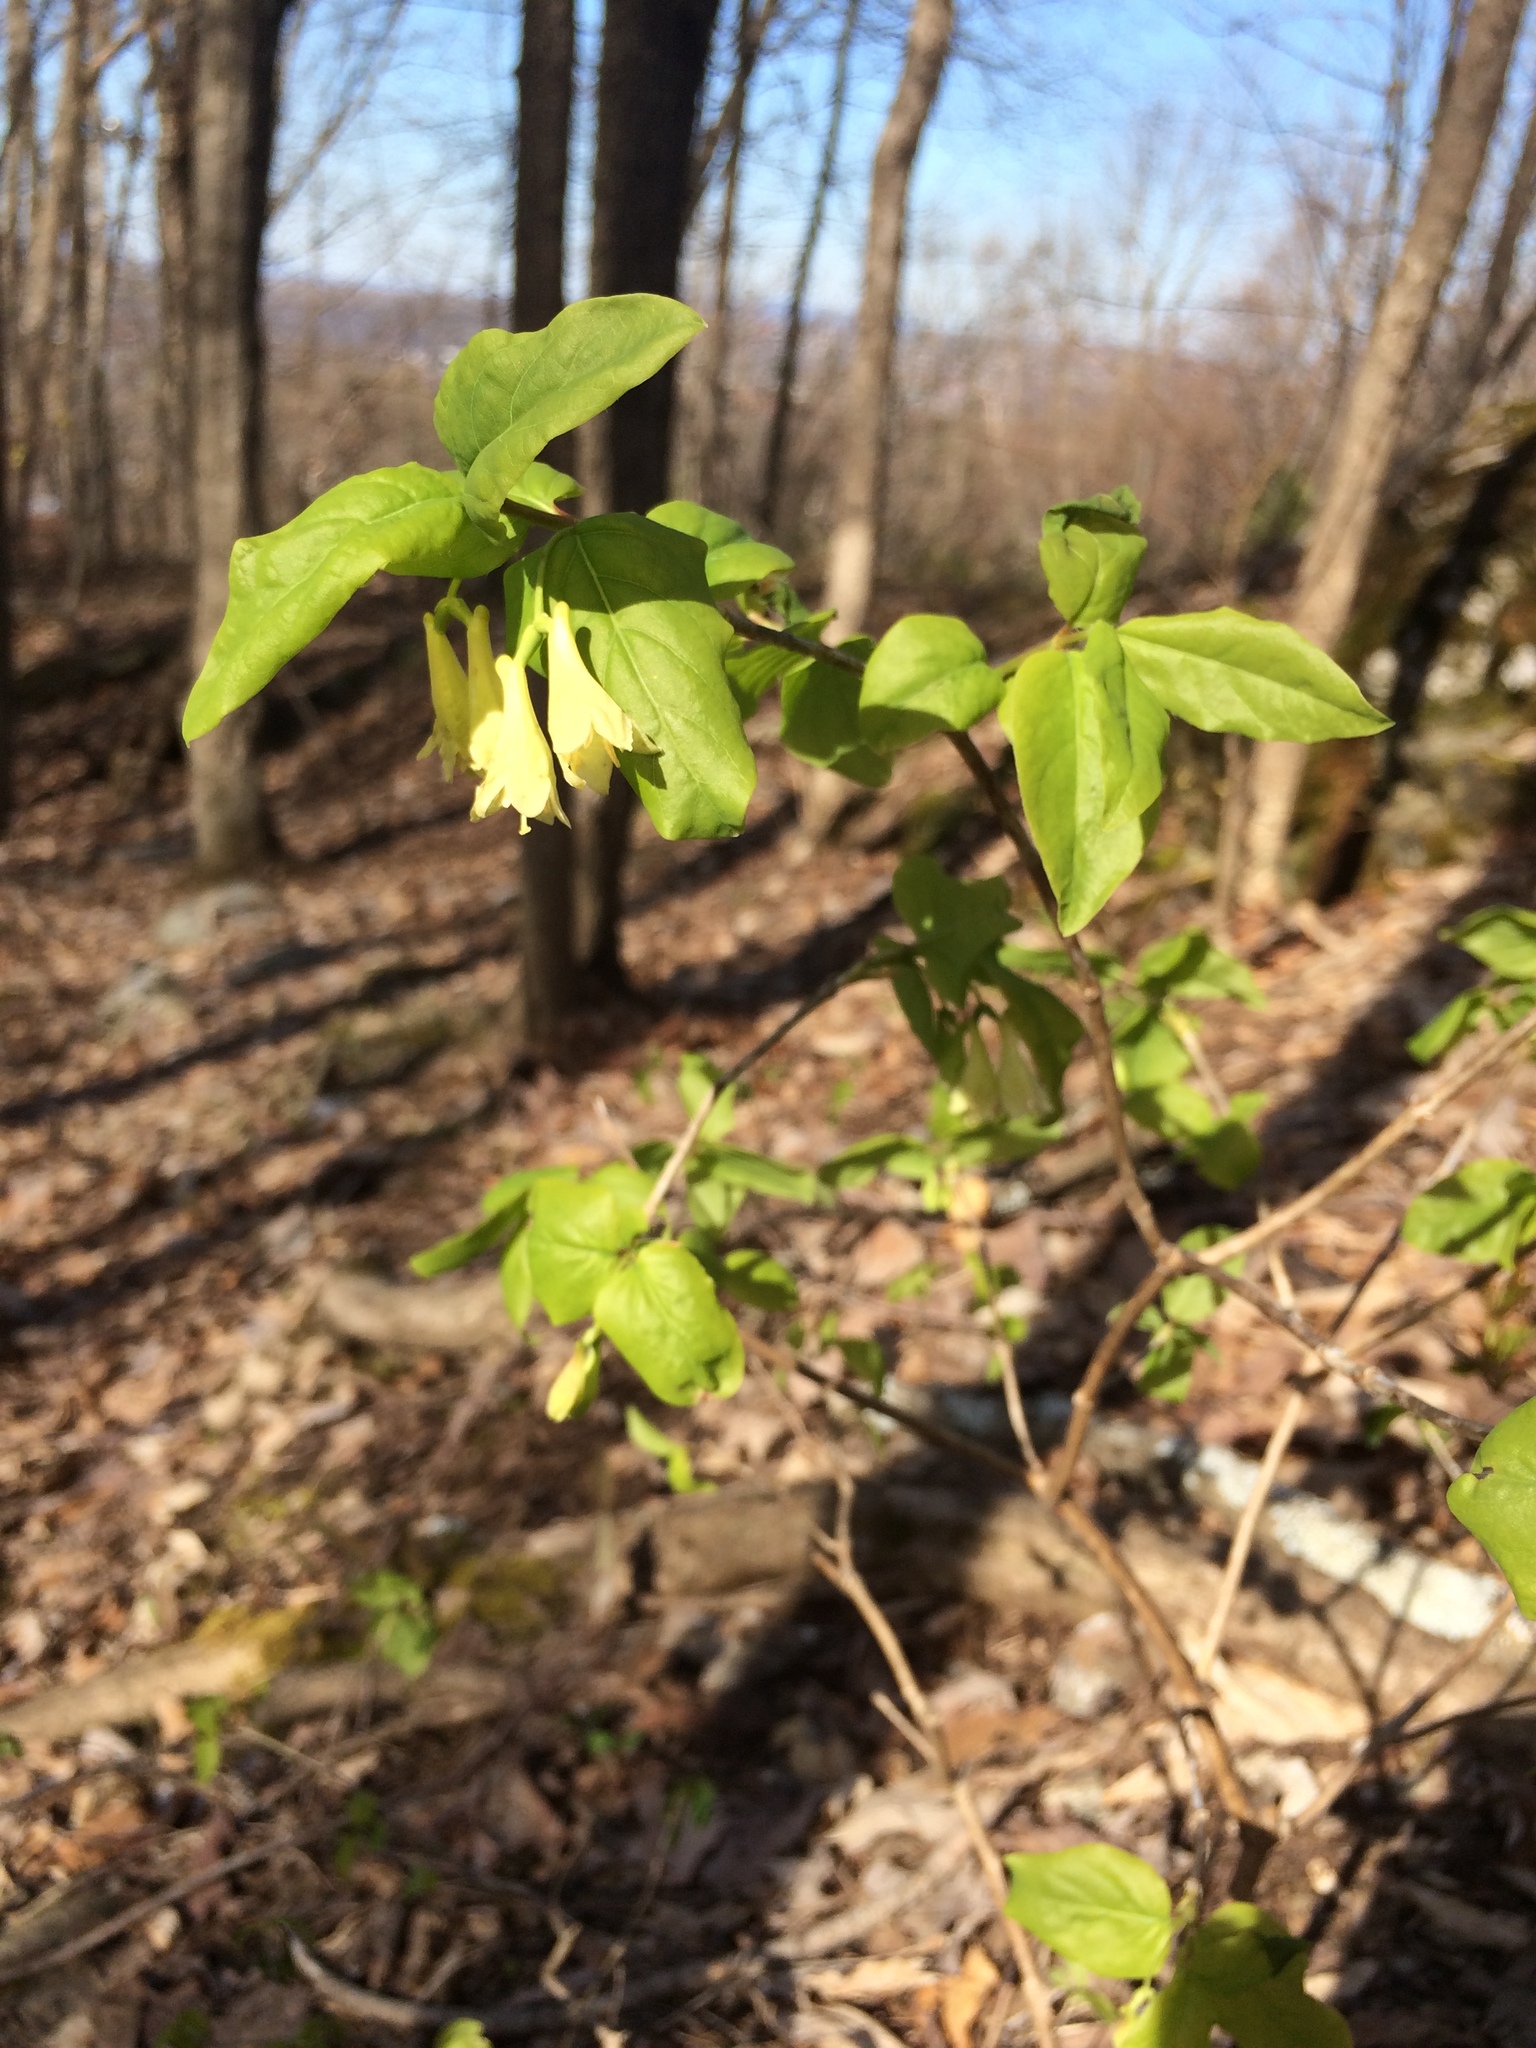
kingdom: Plantae
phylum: Tracheophyta
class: Magnoliopsida
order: Dipsacales
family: Caprifoliaceae
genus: Lonicera
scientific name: Lonicera canadensis
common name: American fly-honeysuckle
